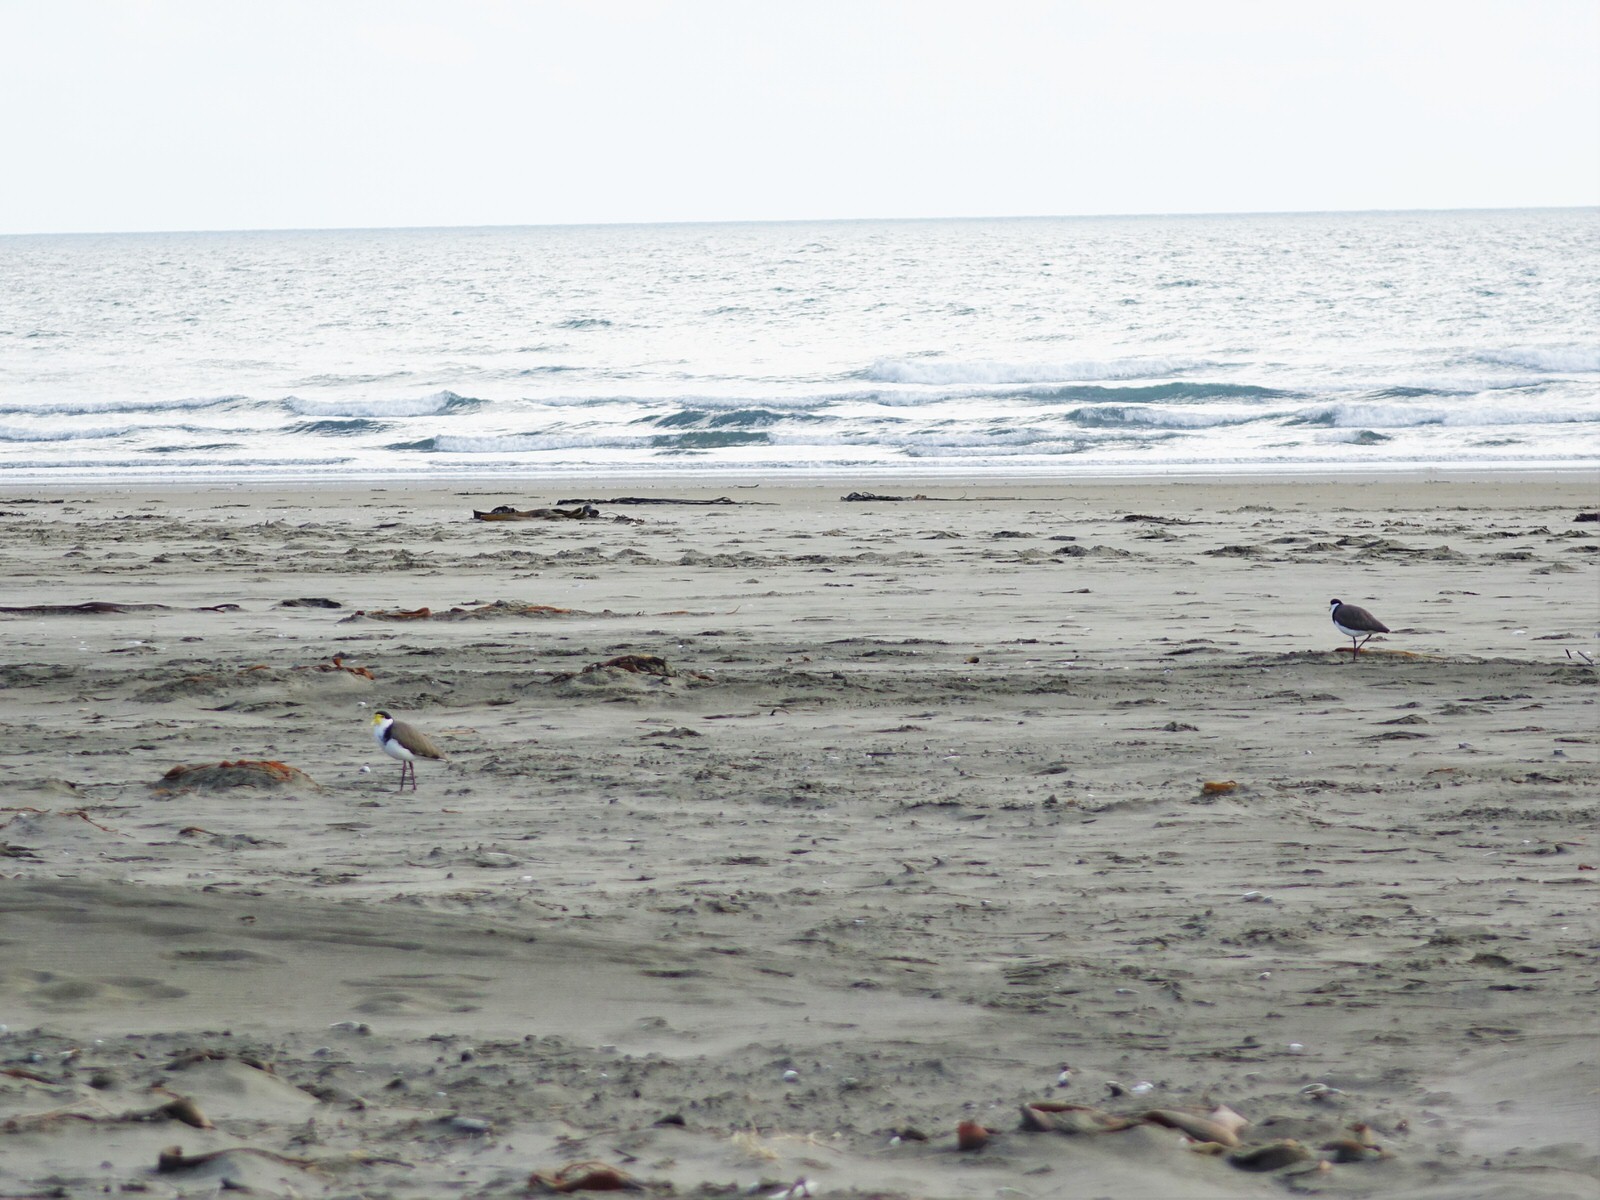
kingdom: Animalia
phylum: Chordata
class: Aves
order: Charadriiformes
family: Charadriidae
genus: Vanellus
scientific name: Vanellus miles
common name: Masked lapwing
